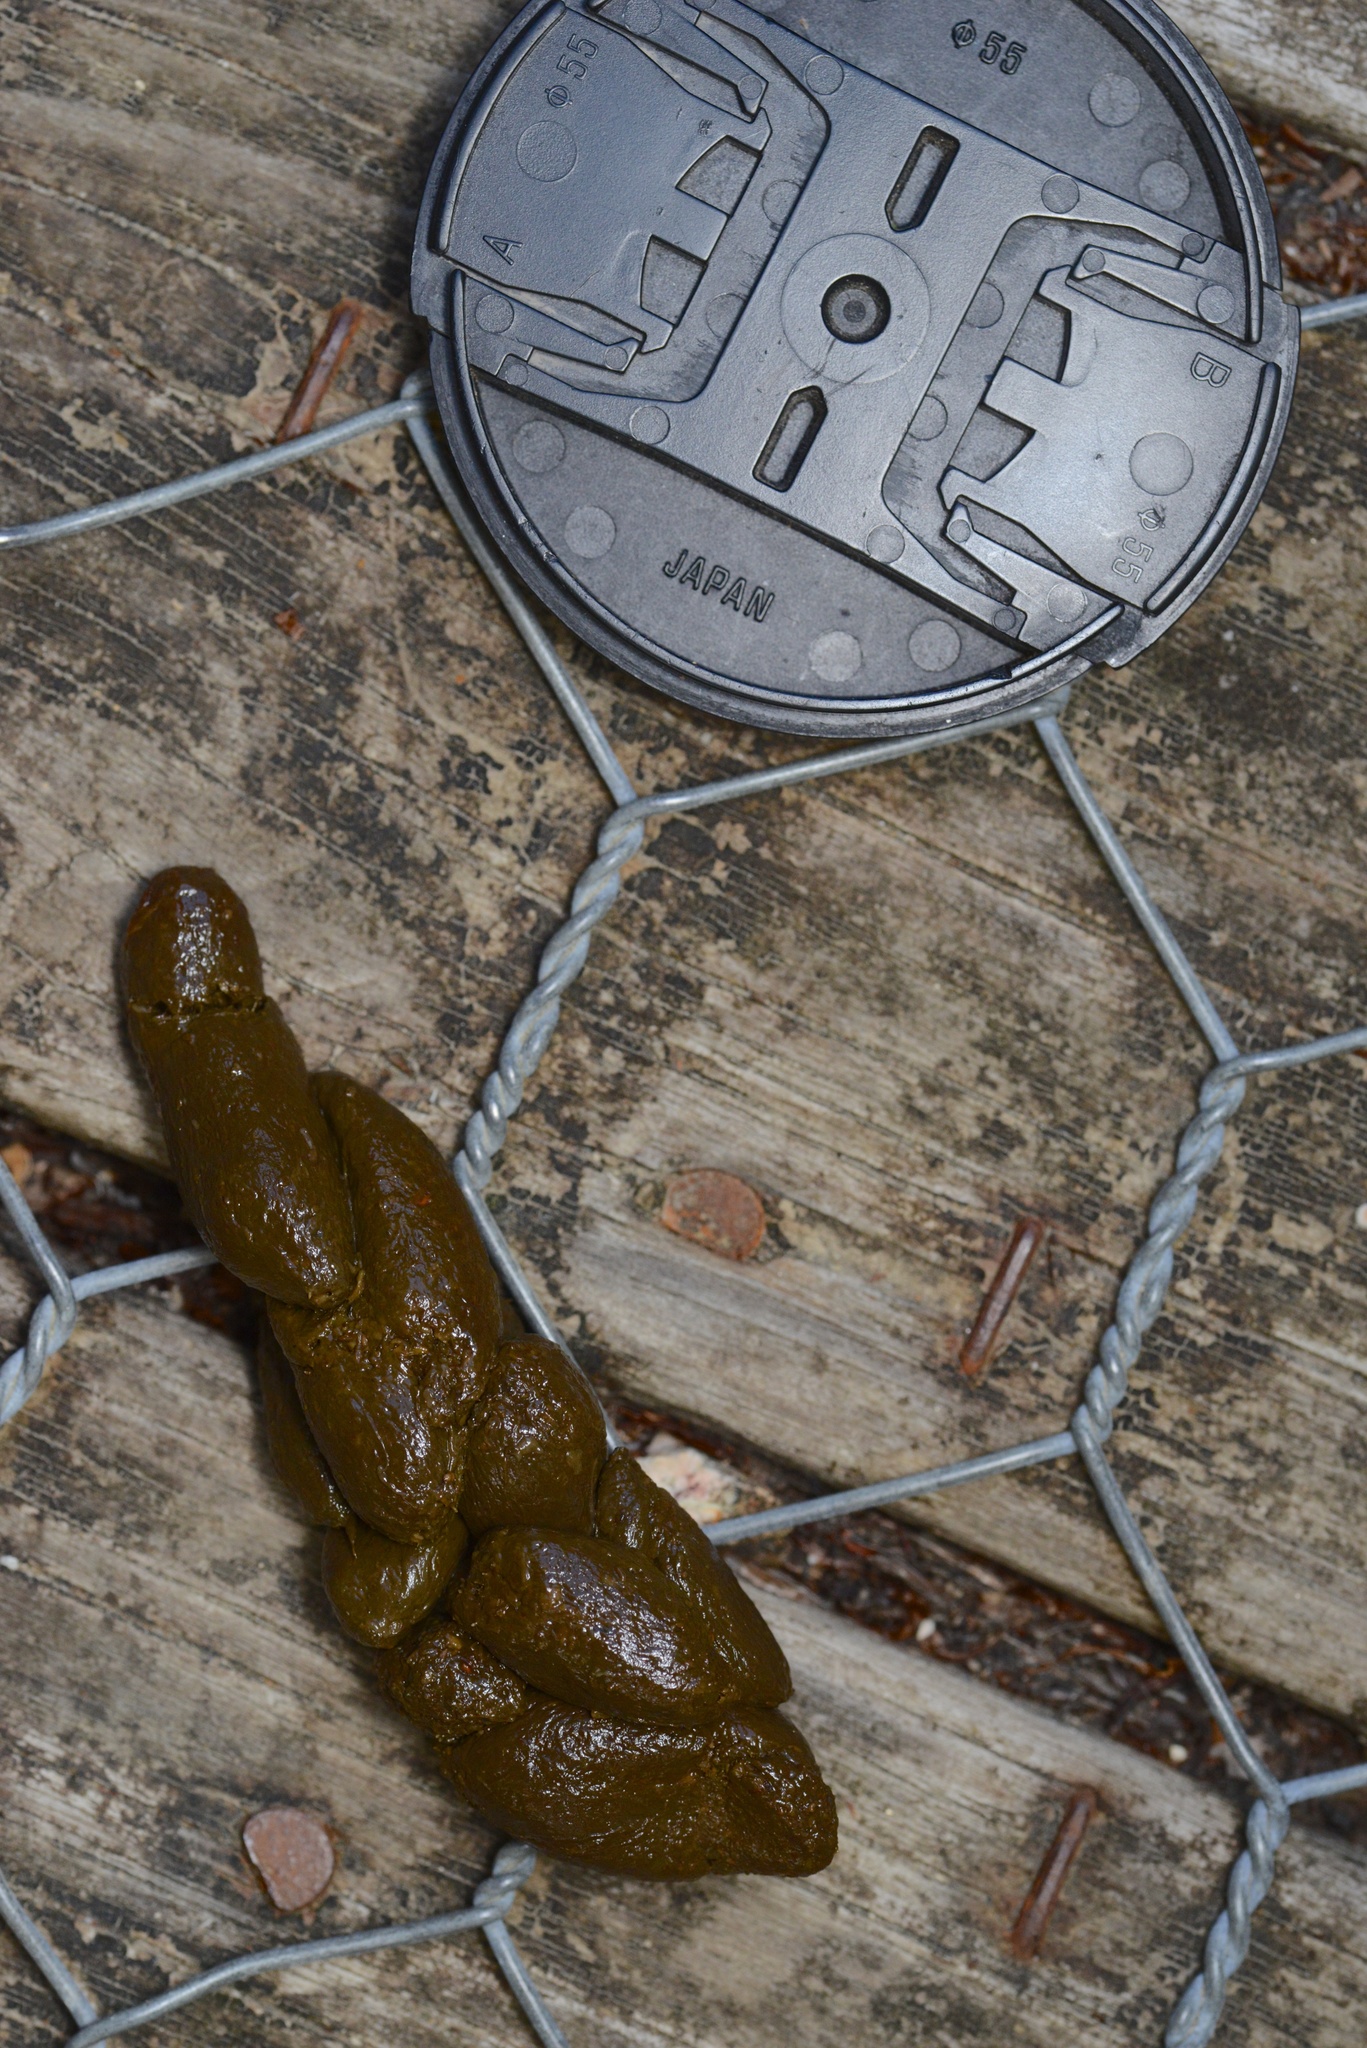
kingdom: Animalia
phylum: Chordata
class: Mammalia
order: Diprotodontia
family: Phalangeridae
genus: Trichosurus
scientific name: Trichosurus vulpecula
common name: Common brushtail
